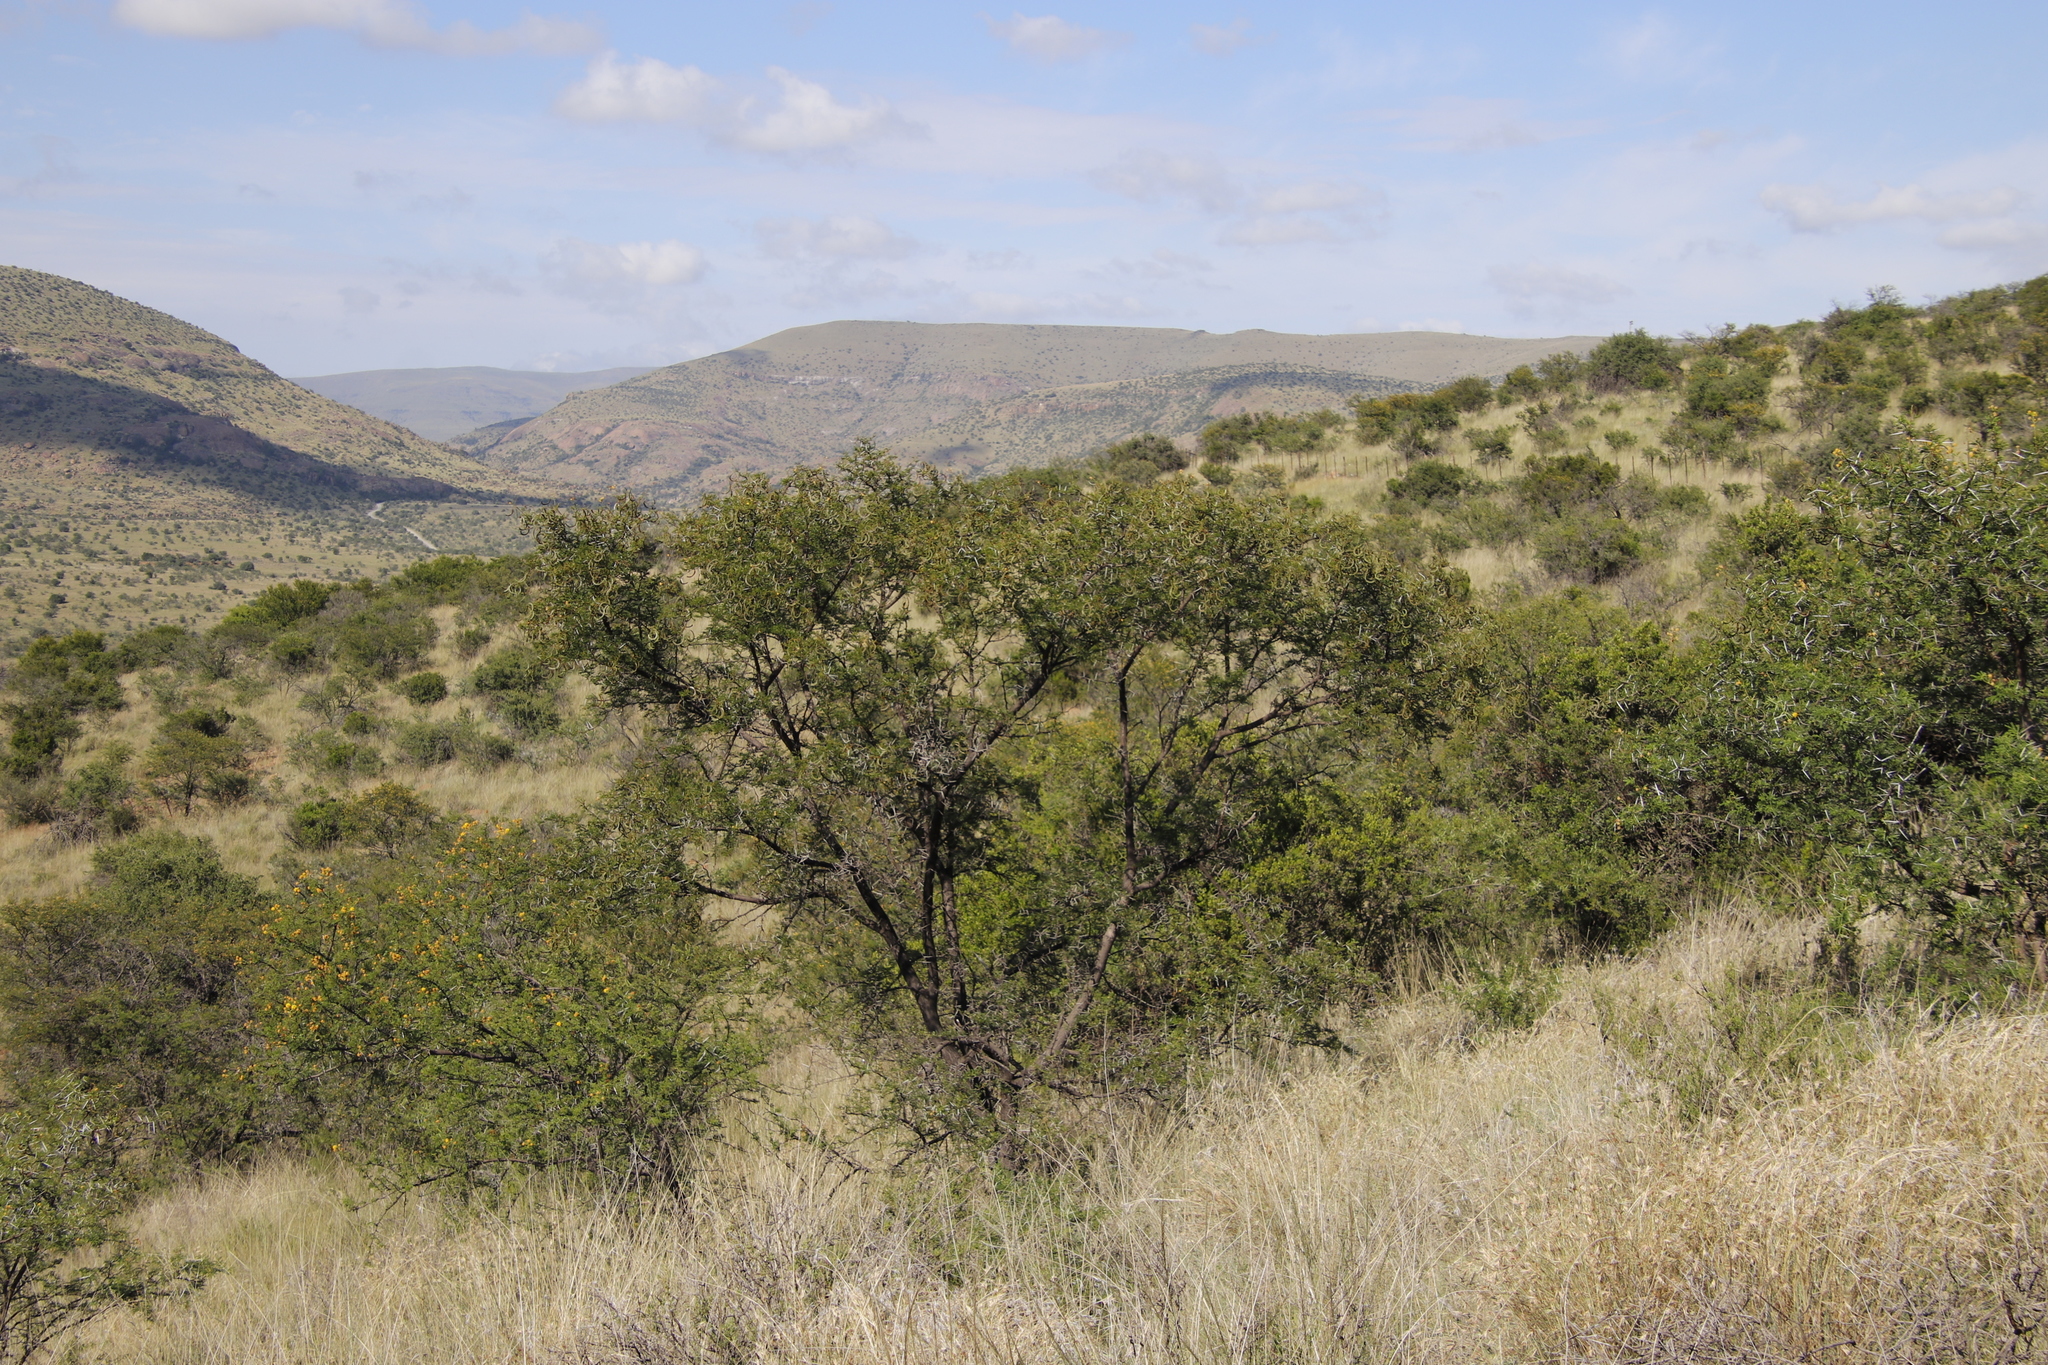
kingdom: Plantae
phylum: Tracheophyta
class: Magnoliopsida
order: Fabales
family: Fabaceae
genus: Vachellia
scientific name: Vachellia karroo
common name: Sweet thorn
